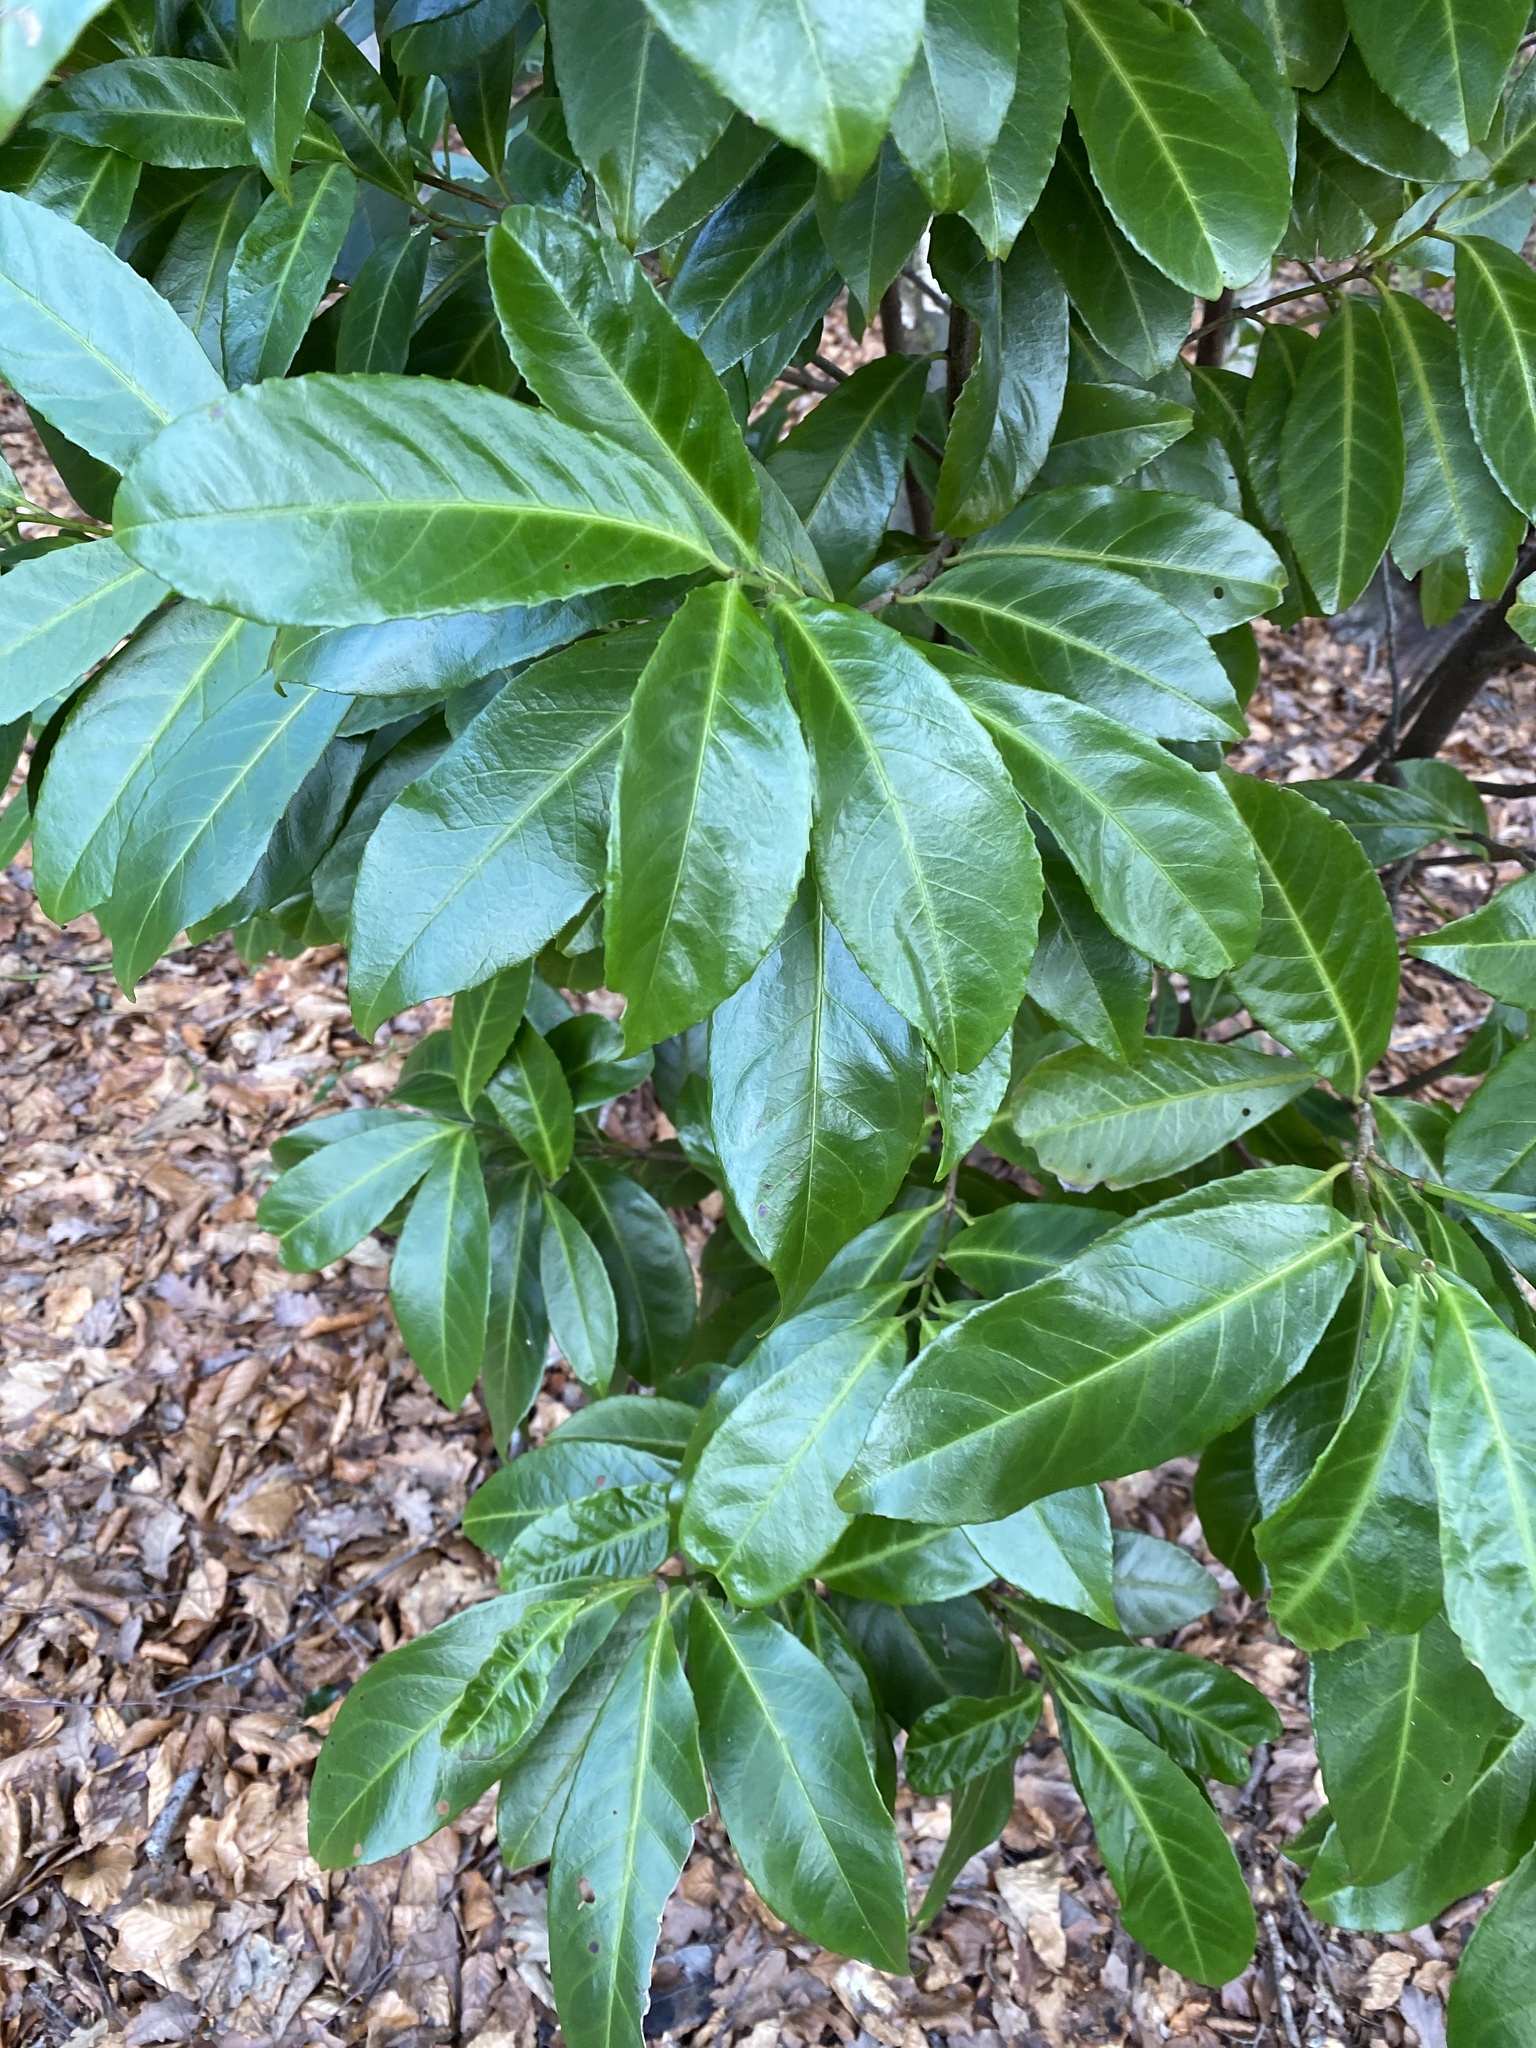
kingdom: Plantae
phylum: Tracheophyta
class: Magnoliopsida
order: Rosales
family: Rosaceae
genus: Prunus
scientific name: Prunus laurocerasus
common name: Cherry laurel
